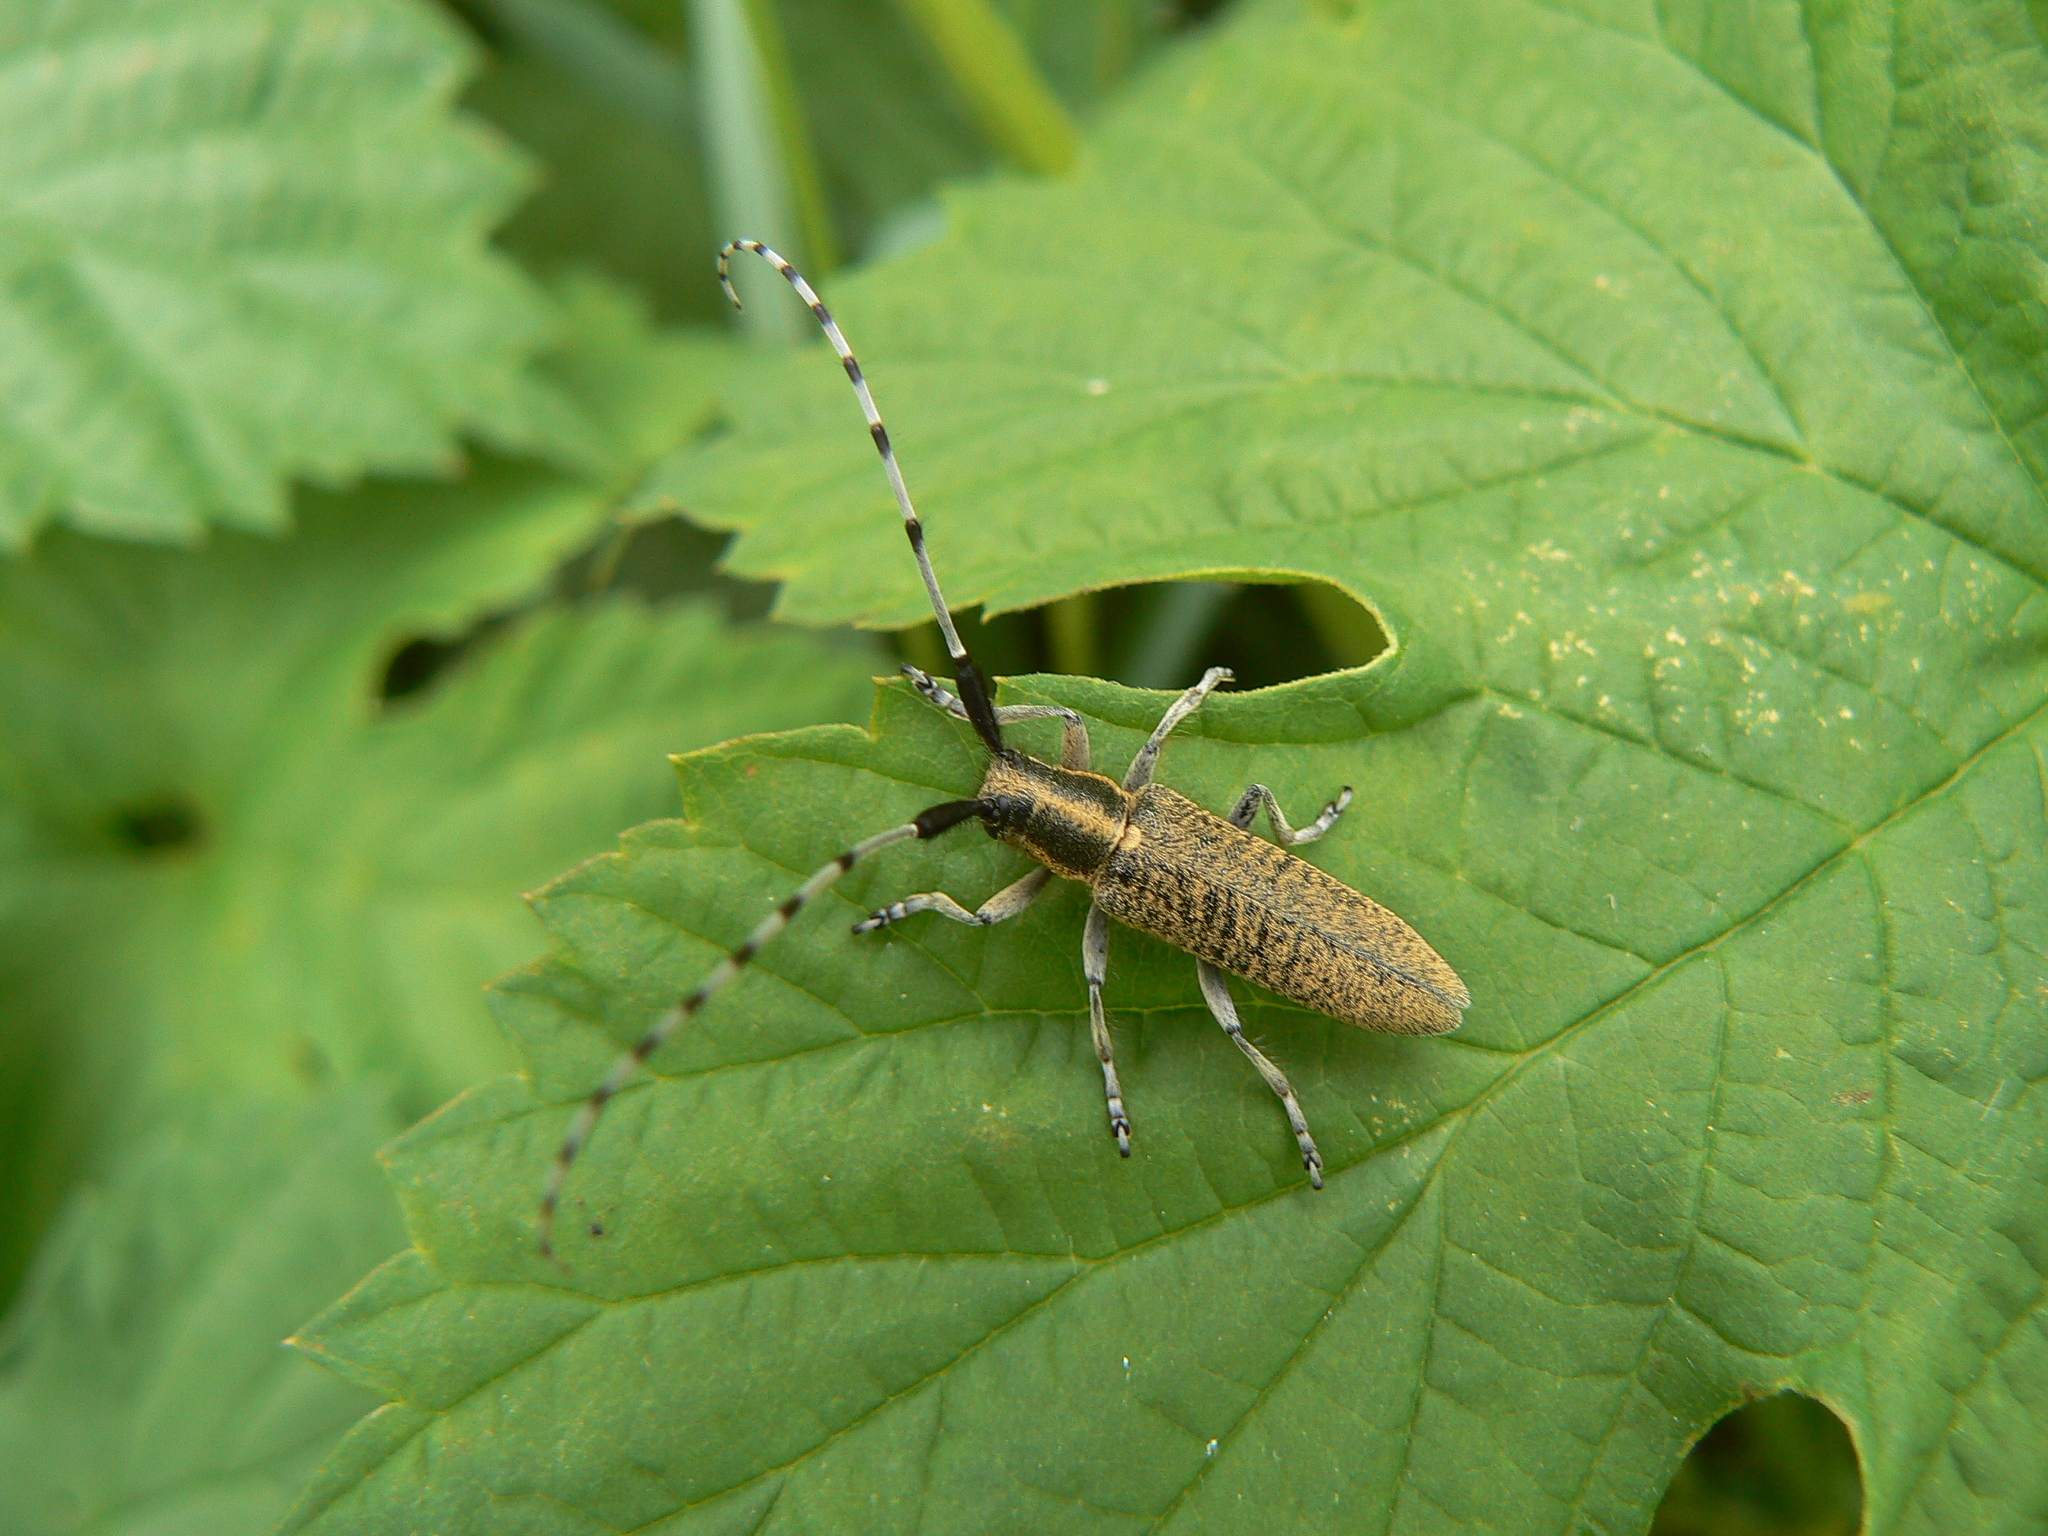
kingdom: Animalia
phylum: Arthropoda
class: Insecta
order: Coleoptera
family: Cerambycidae
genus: Agapanthia
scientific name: Agapanthia villosoviridescens
